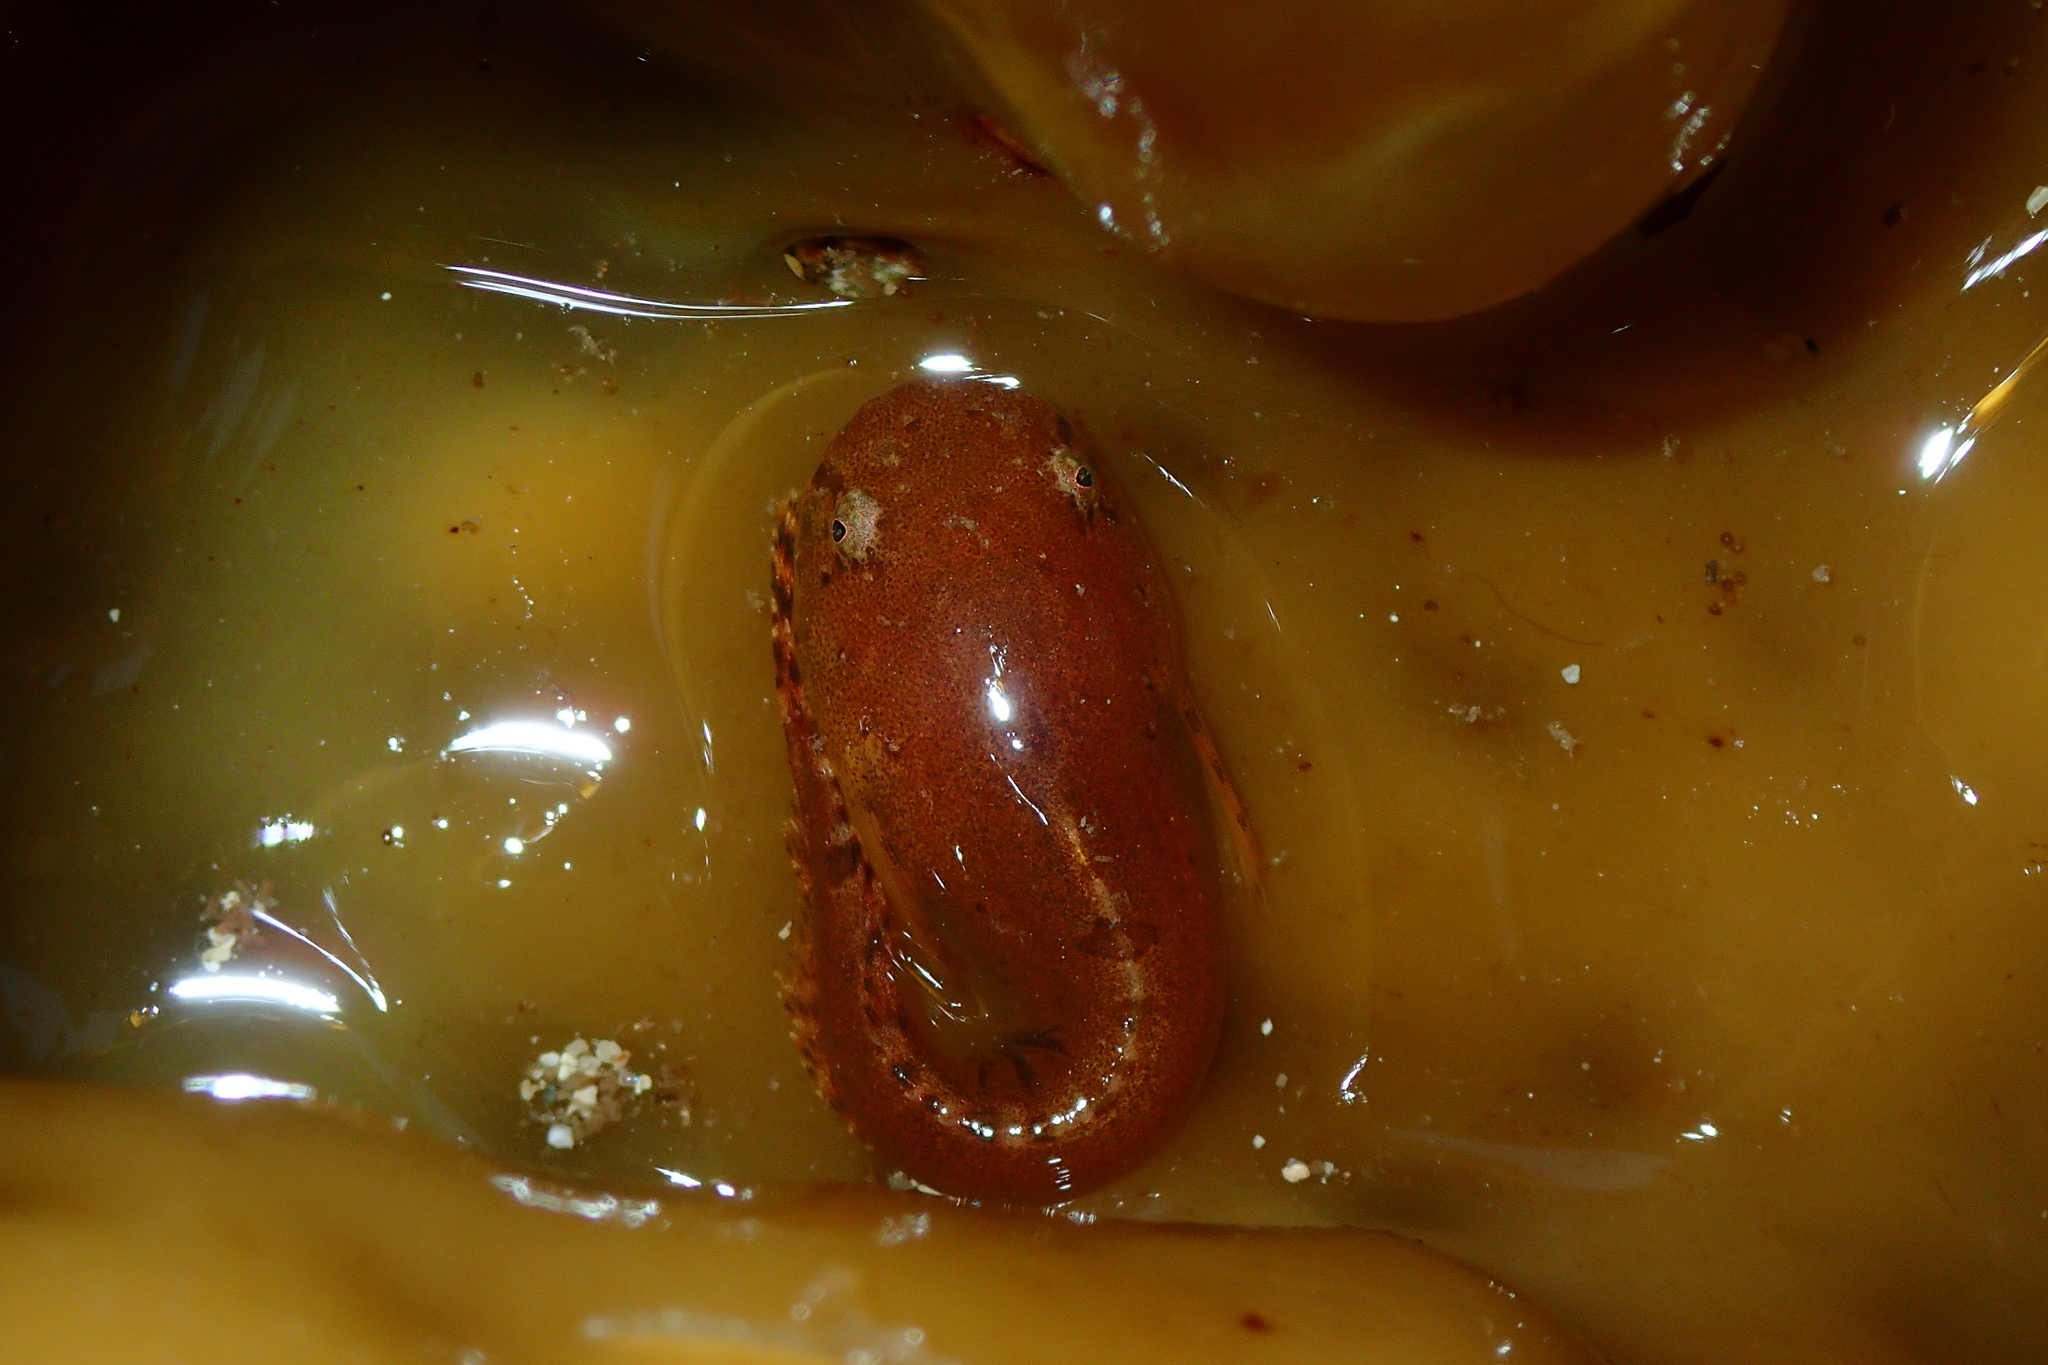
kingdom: Animalia
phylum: Chordata
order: Scorpaeniformes
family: Liparidae
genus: Liparis
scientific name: Liparis montagui
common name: Montagu's sea-snail
